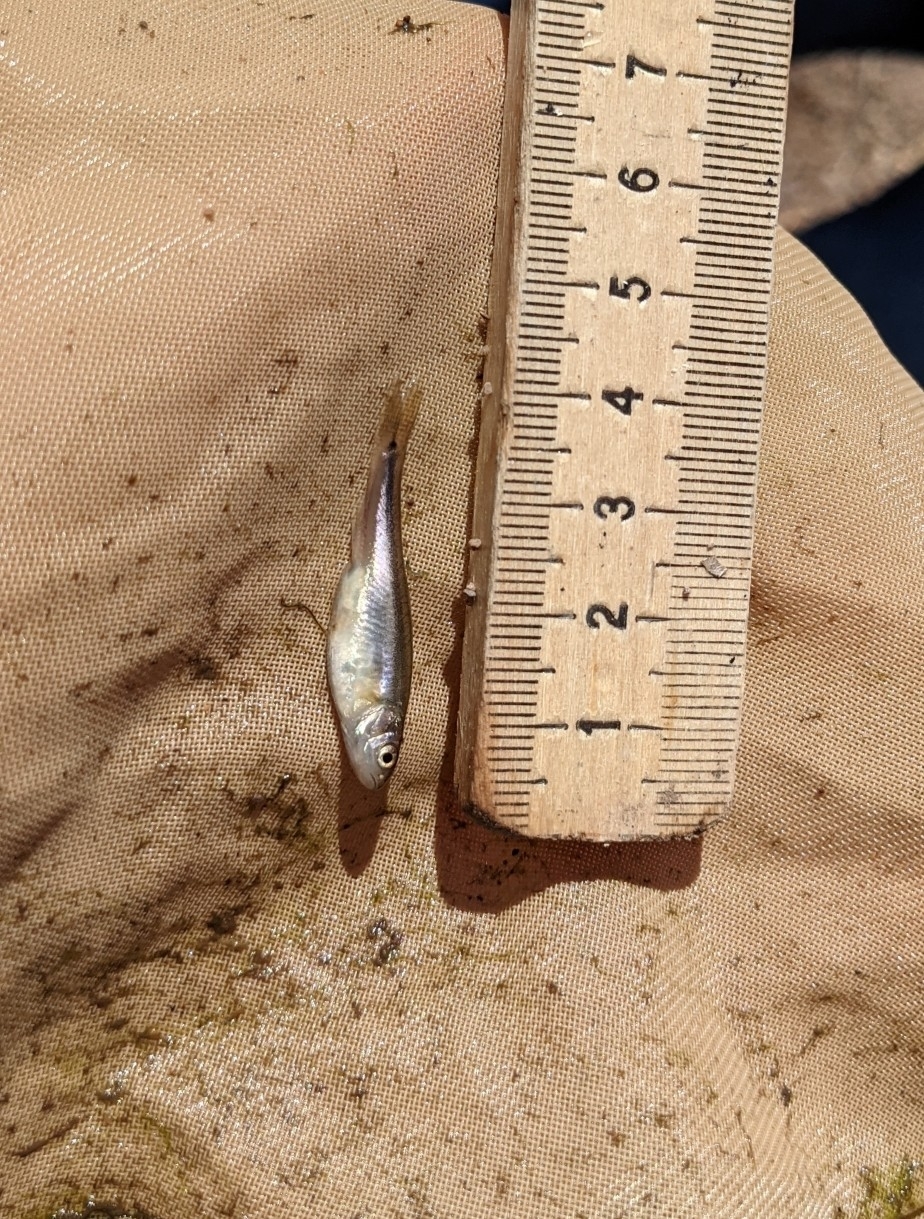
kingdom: Animalia
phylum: Chordata
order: Cypriniformes
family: Cyprinidae
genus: Agosia
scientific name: Agosia chrysogaster
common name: Longfin dace
